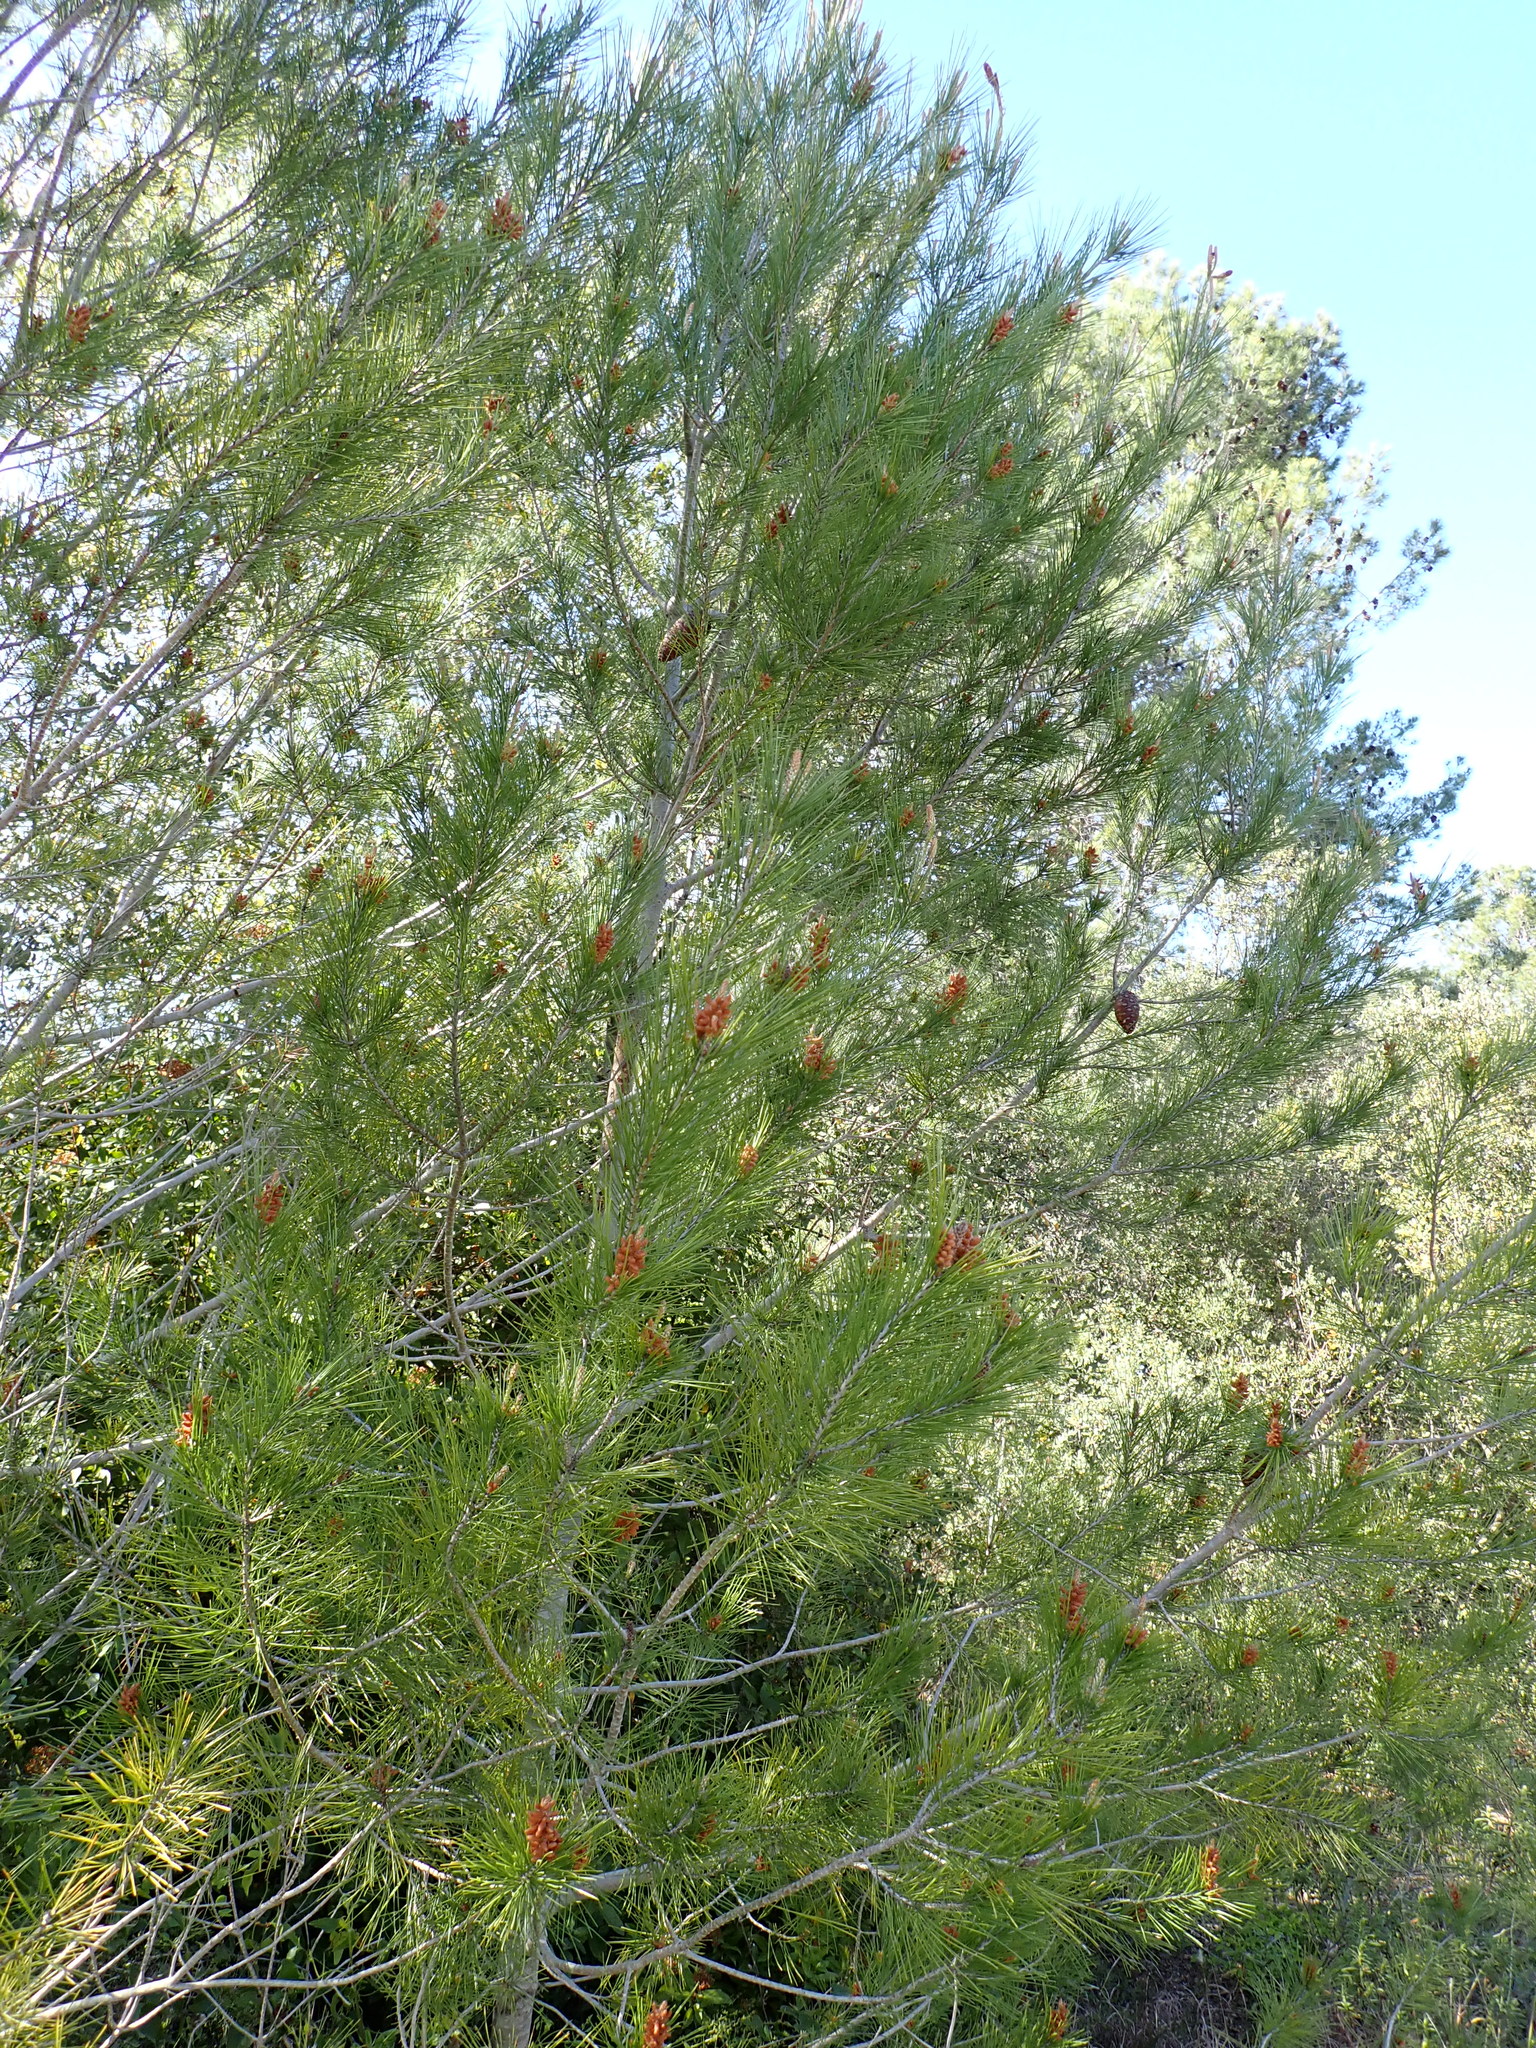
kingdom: Plantae
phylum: Tracheophyta
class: Pinopsida
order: Pinales
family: Pinaceae
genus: Pinus
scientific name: Pinus halepensis
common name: Aleppo pine
